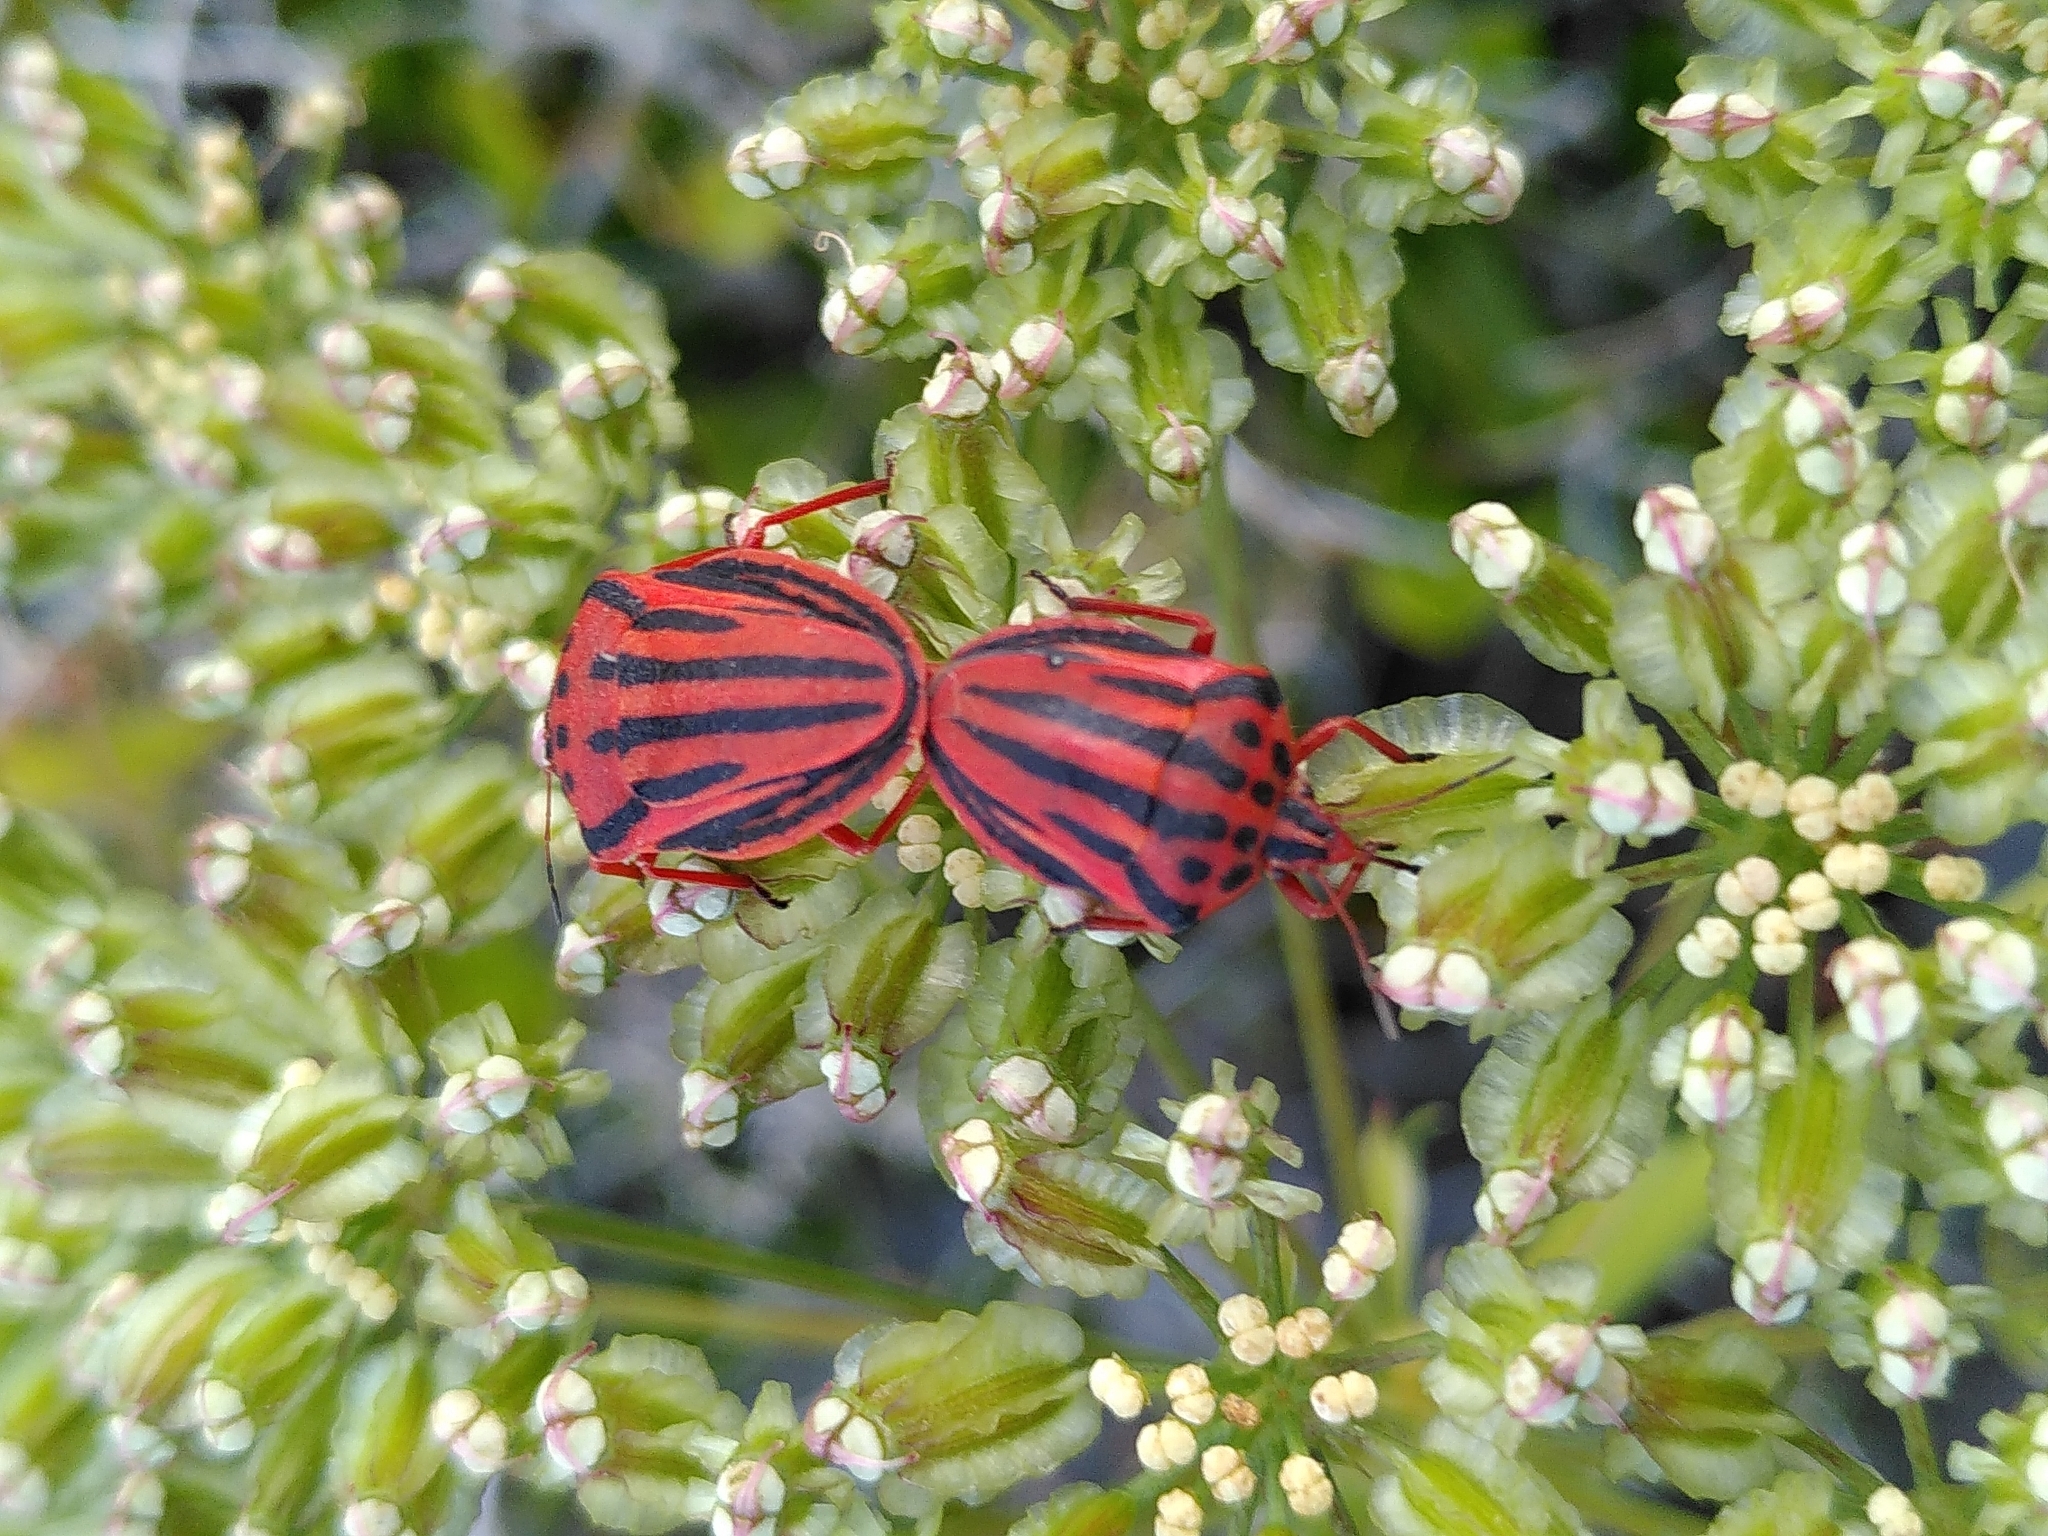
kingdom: Animalia
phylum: Arthropoda
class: Insecta
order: Hemiptera
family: Pentatomidae
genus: Graphosoma
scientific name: Graphosoma semipunctatum
